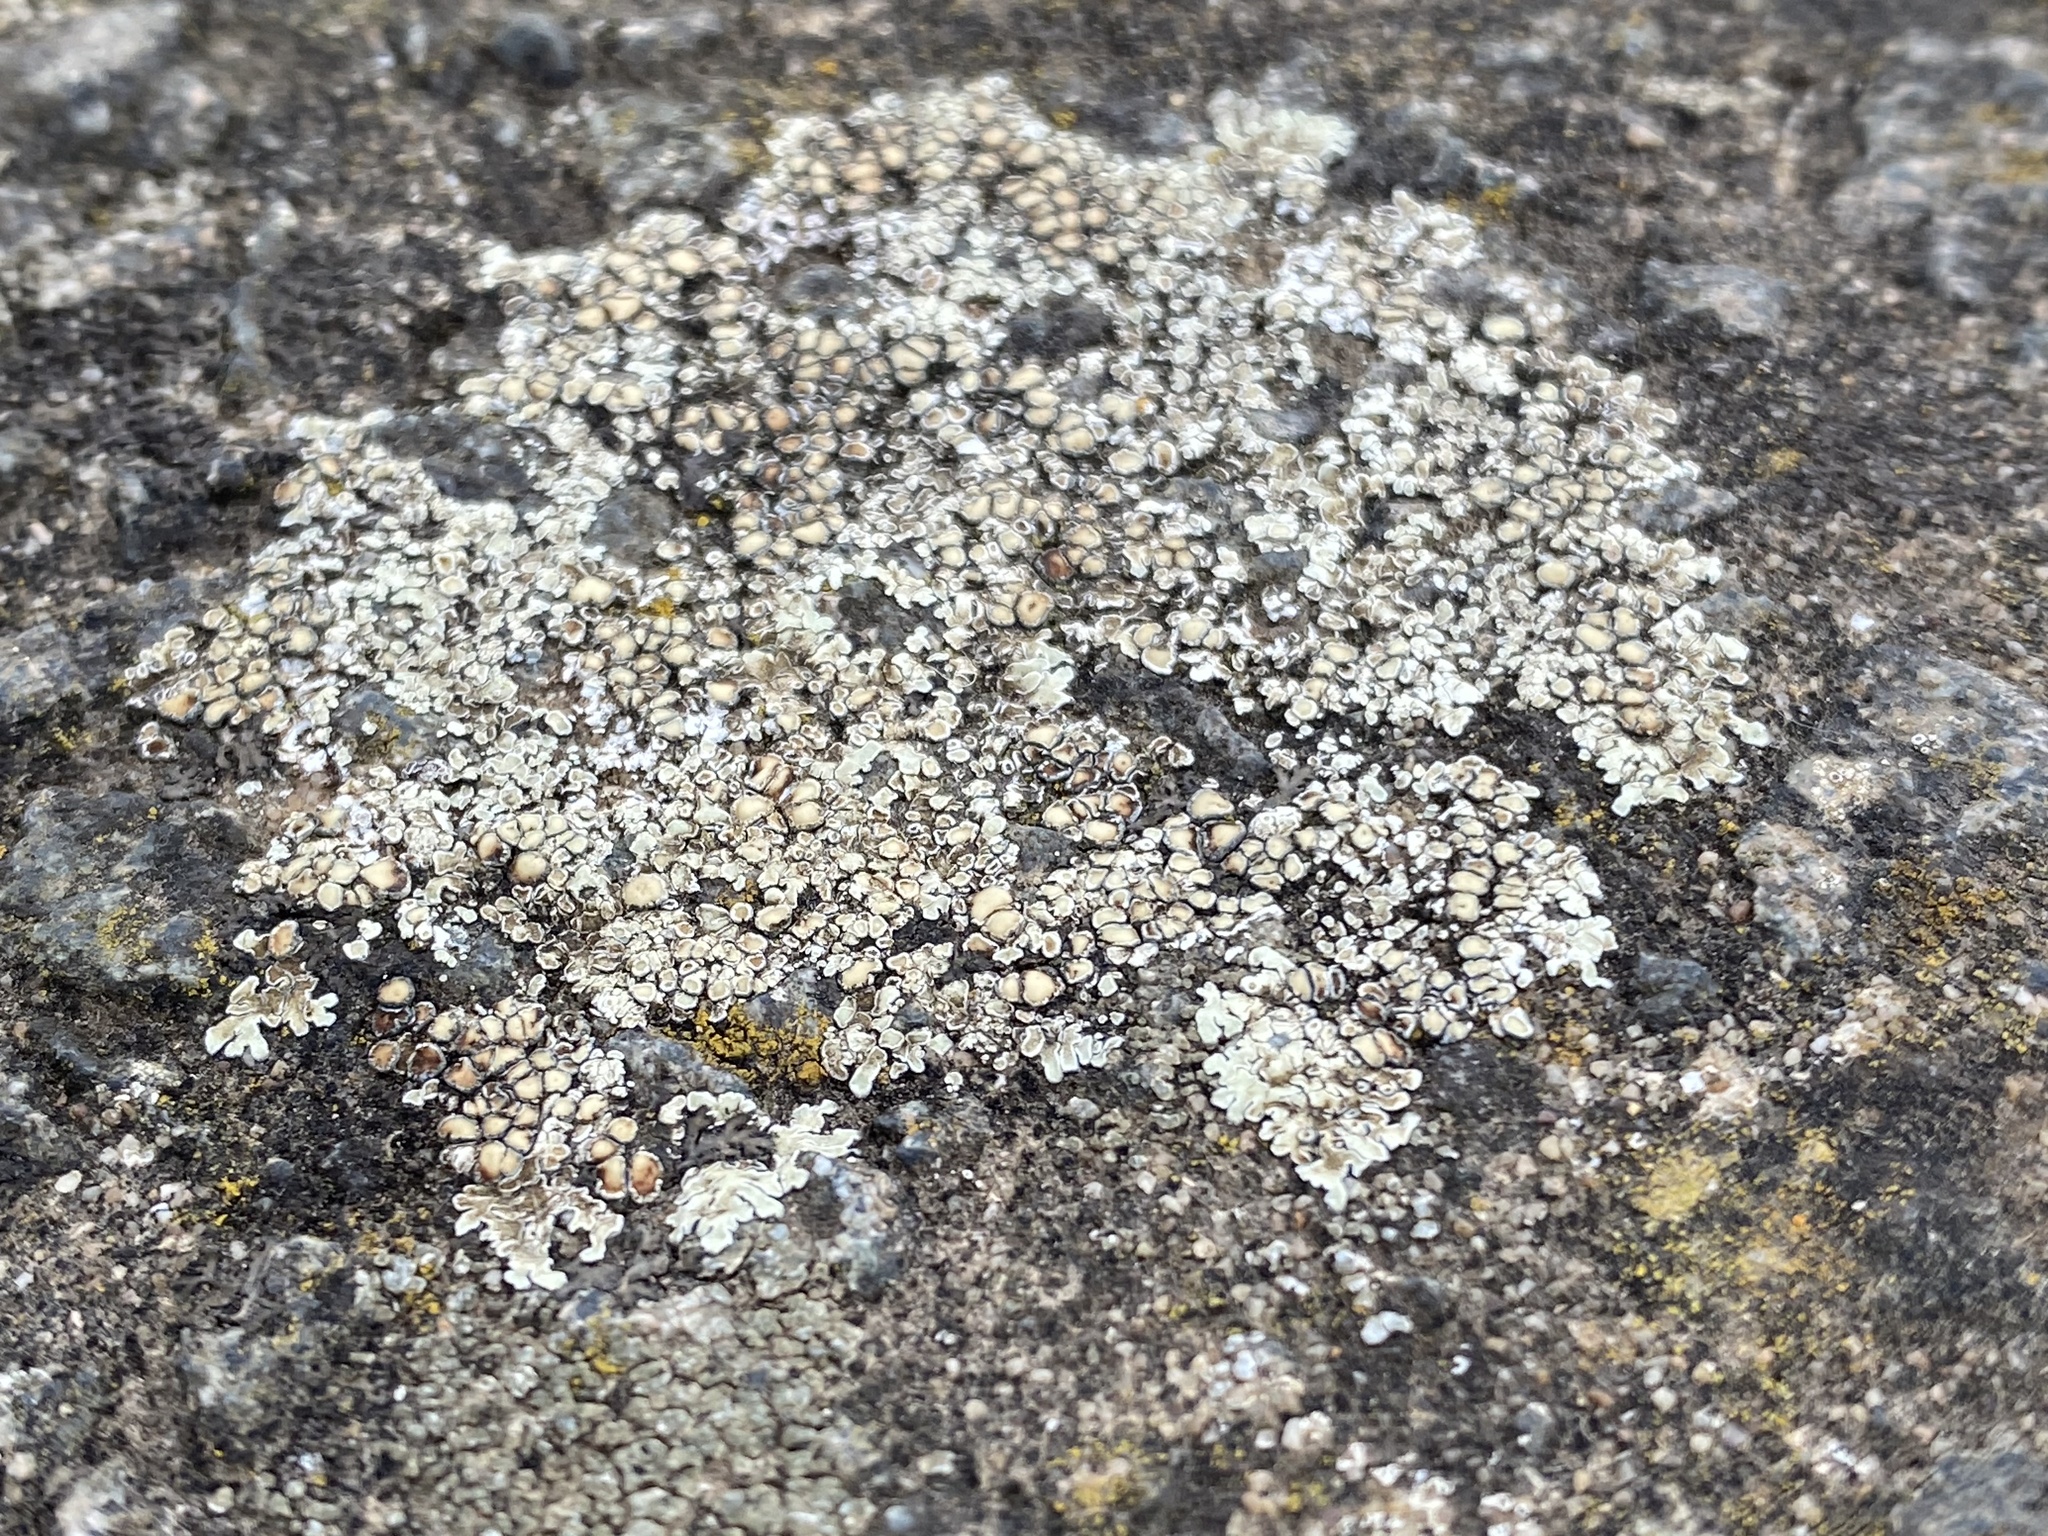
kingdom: Fungi
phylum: Ascomycota
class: Lecanoromycetes
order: Lecanorales
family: Lecanoraceae
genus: Protoparmeliopsis
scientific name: Protoparmeliopsis muralis
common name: Stonewall rim lichen
